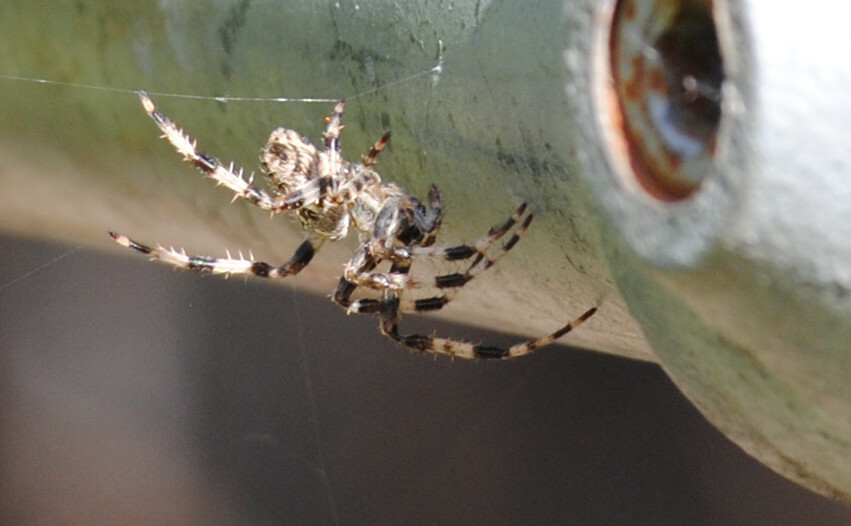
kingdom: Animalia
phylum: Arthropoda
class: Arachnida
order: Araneae
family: Araneidae
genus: Araneus
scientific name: Araneus diadematus
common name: Cross orbweaver
